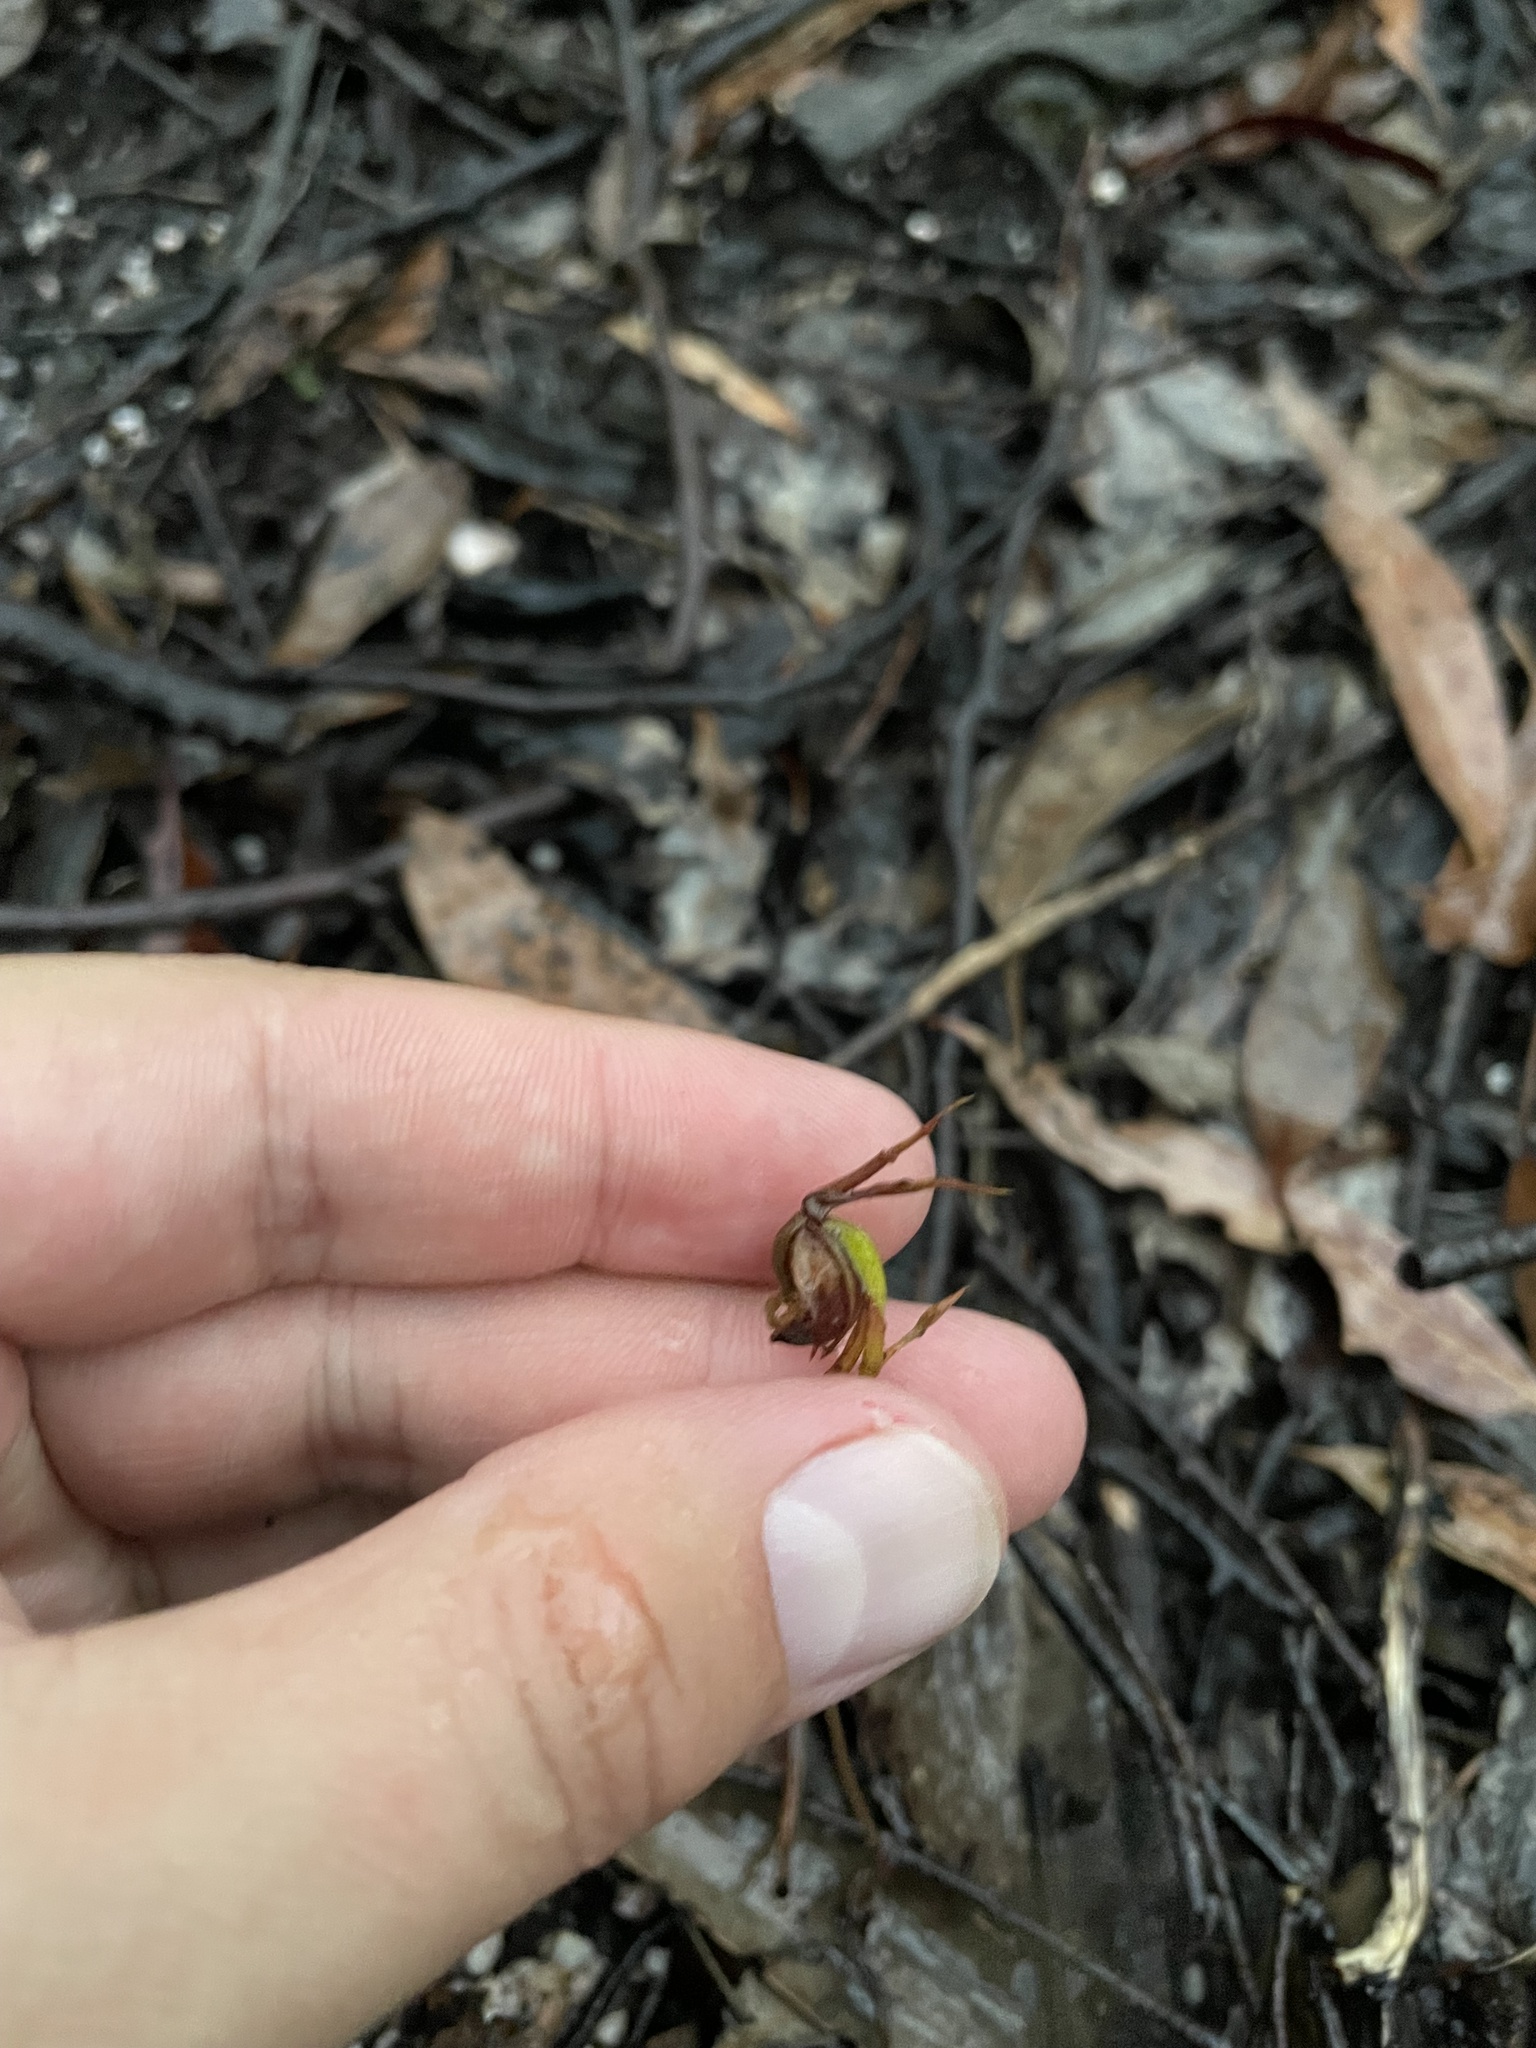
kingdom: Plantae
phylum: Tracheophyta
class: Liliopsida
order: Asparagales
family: Orchidaceae
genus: Caleana
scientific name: Caleana major
